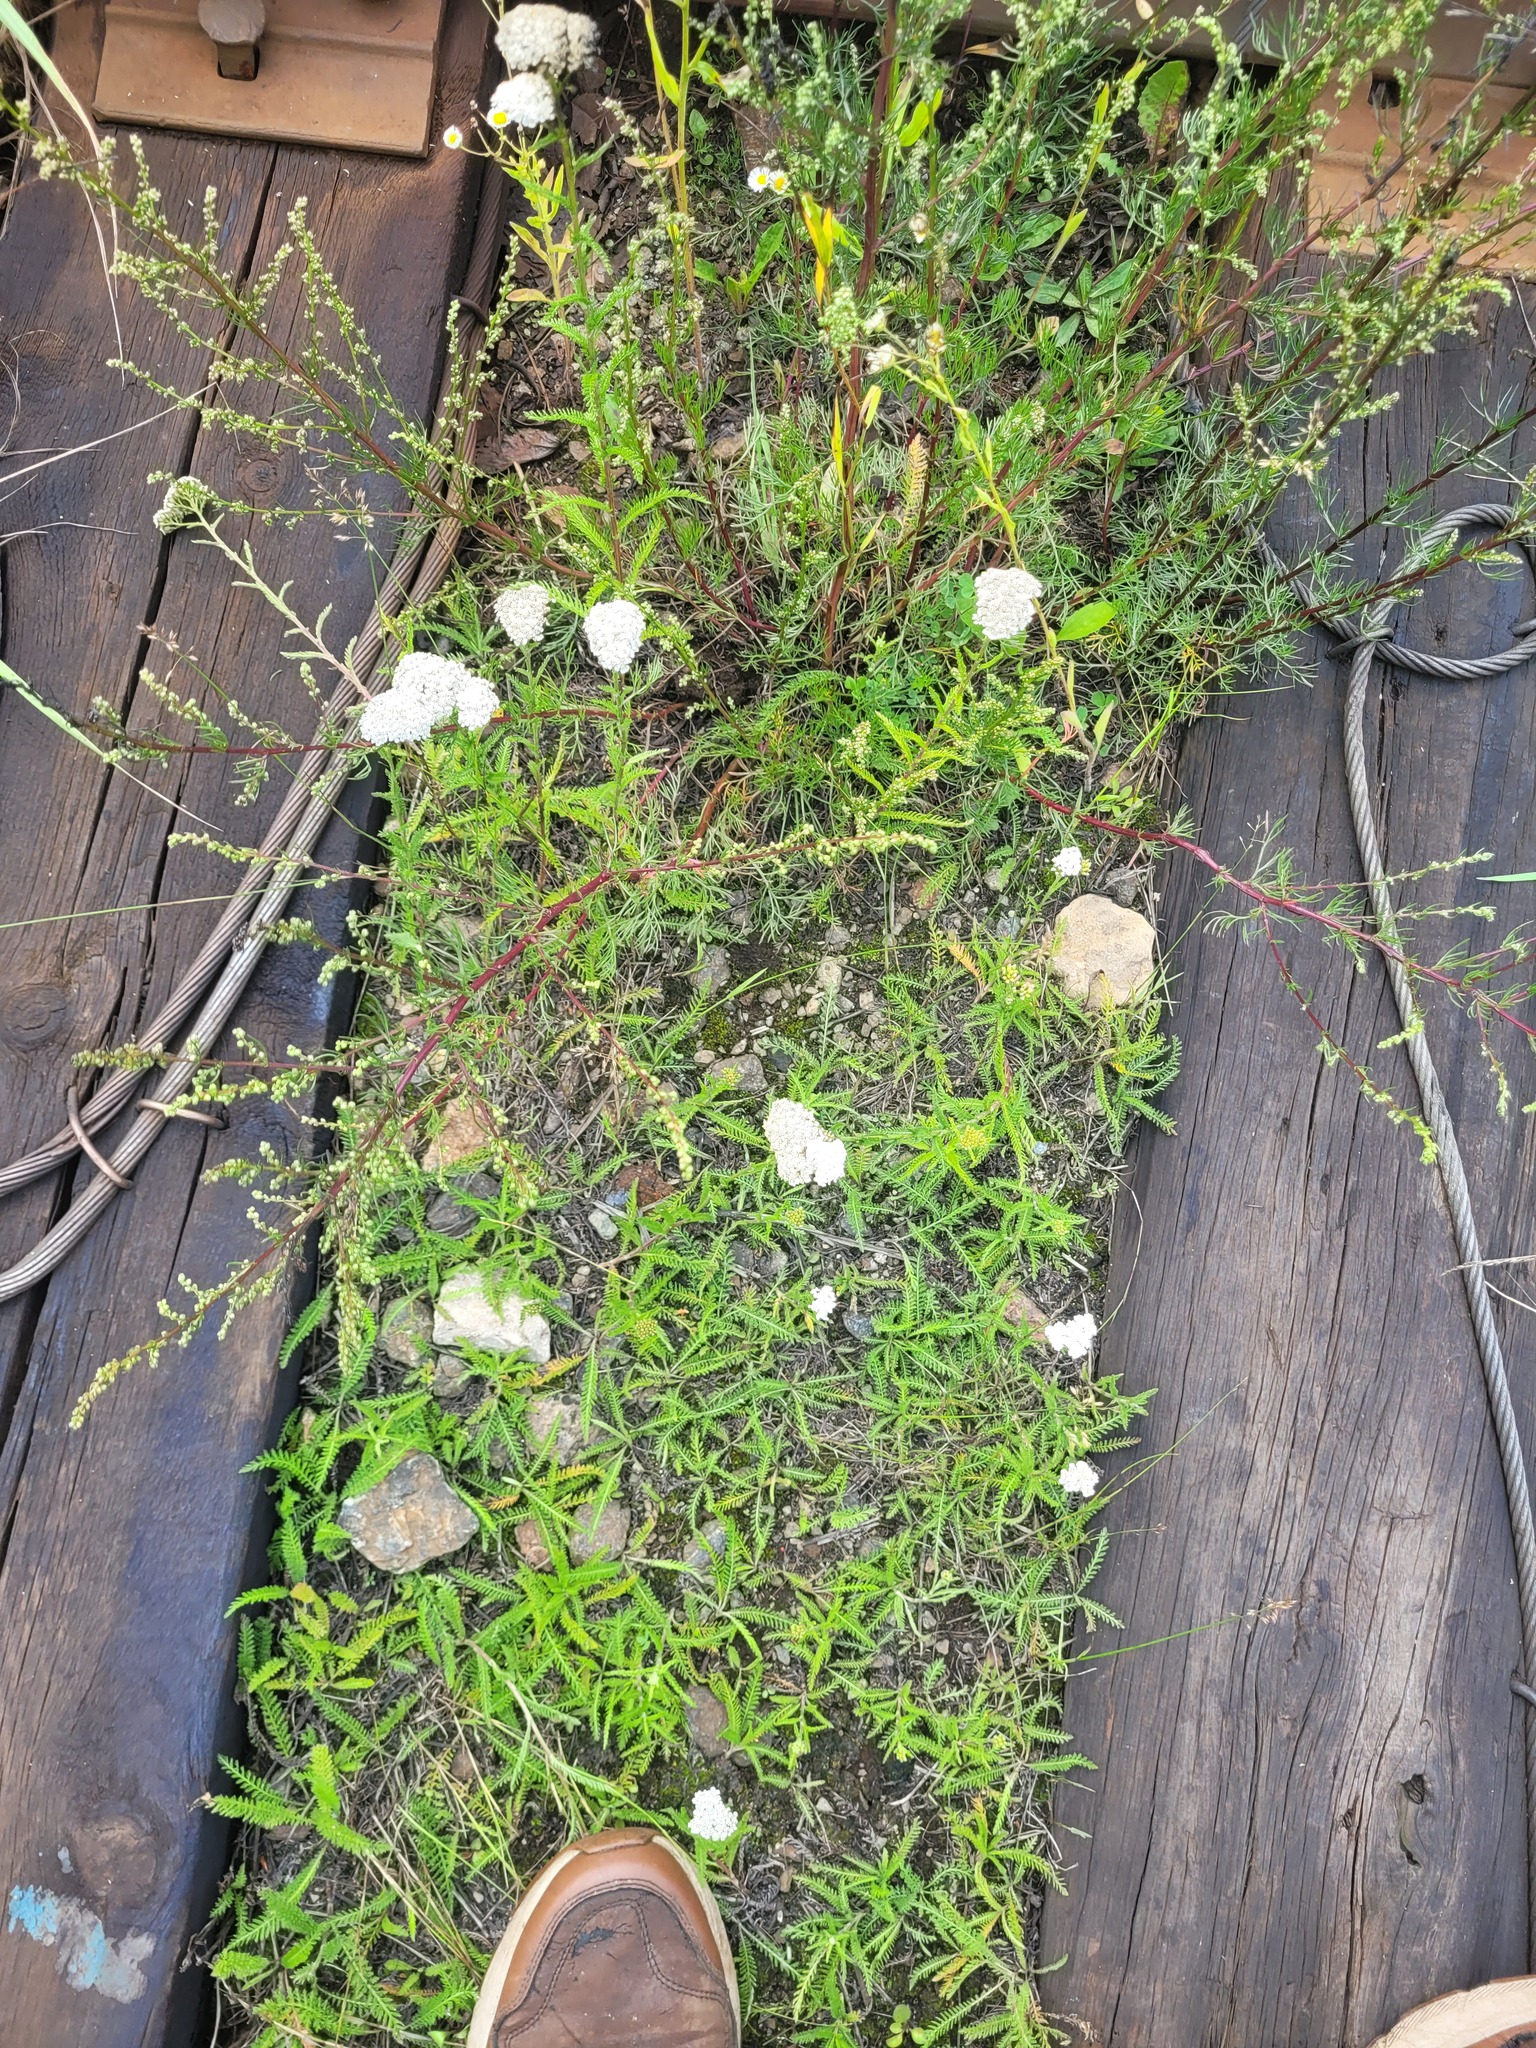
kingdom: Plantae
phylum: Tracheophyta
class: Magnoliopsida
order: Asterales
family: Asteraceae
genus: Achillea
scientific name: Achillea millefolium
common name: Yarrow
